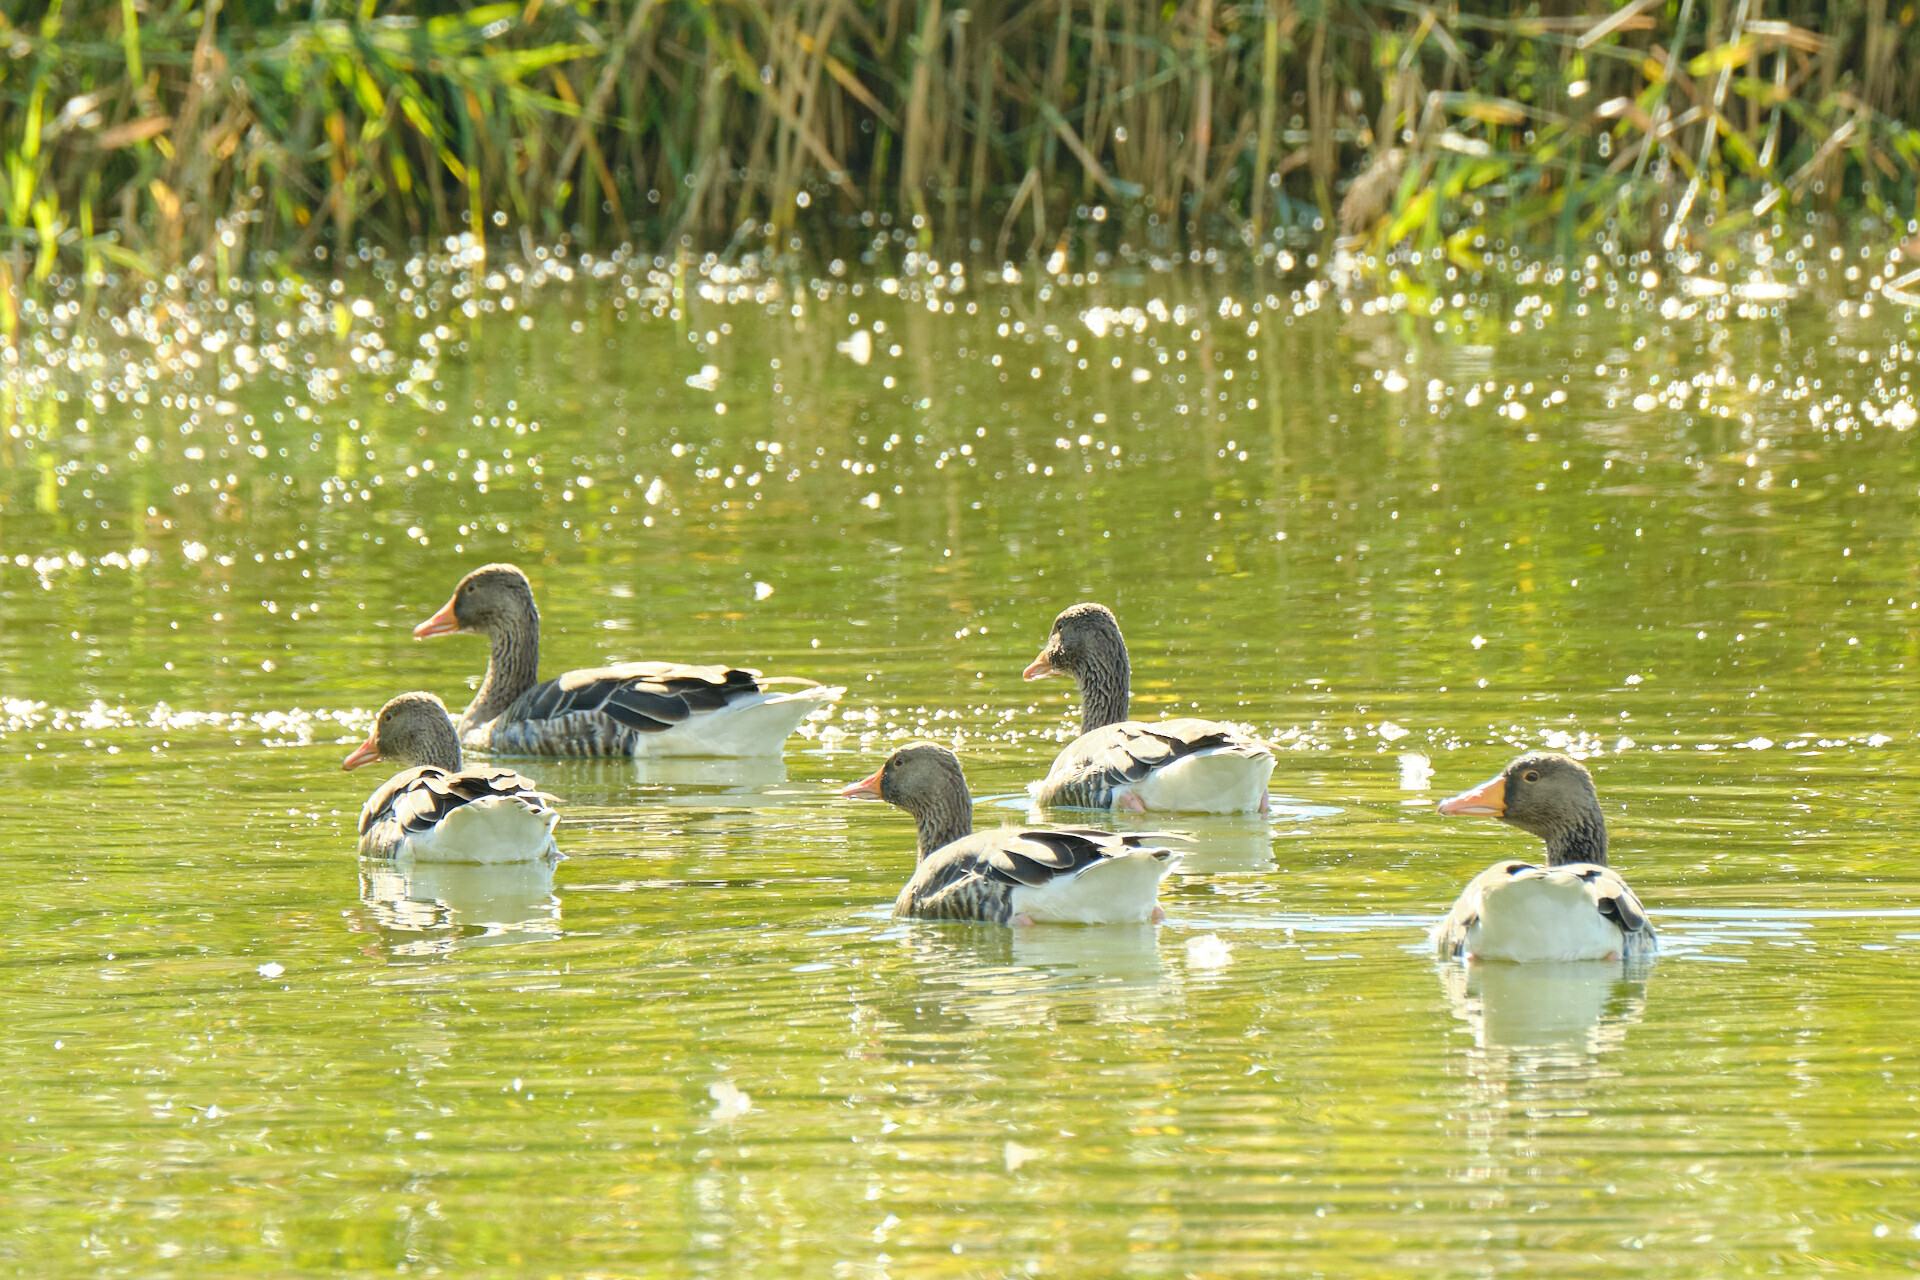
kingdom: Animalia
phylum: Chordata
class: Aves
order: Anseriformes
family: Anatidae
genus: Anser
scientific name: Anser anser
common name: Greylag goose
